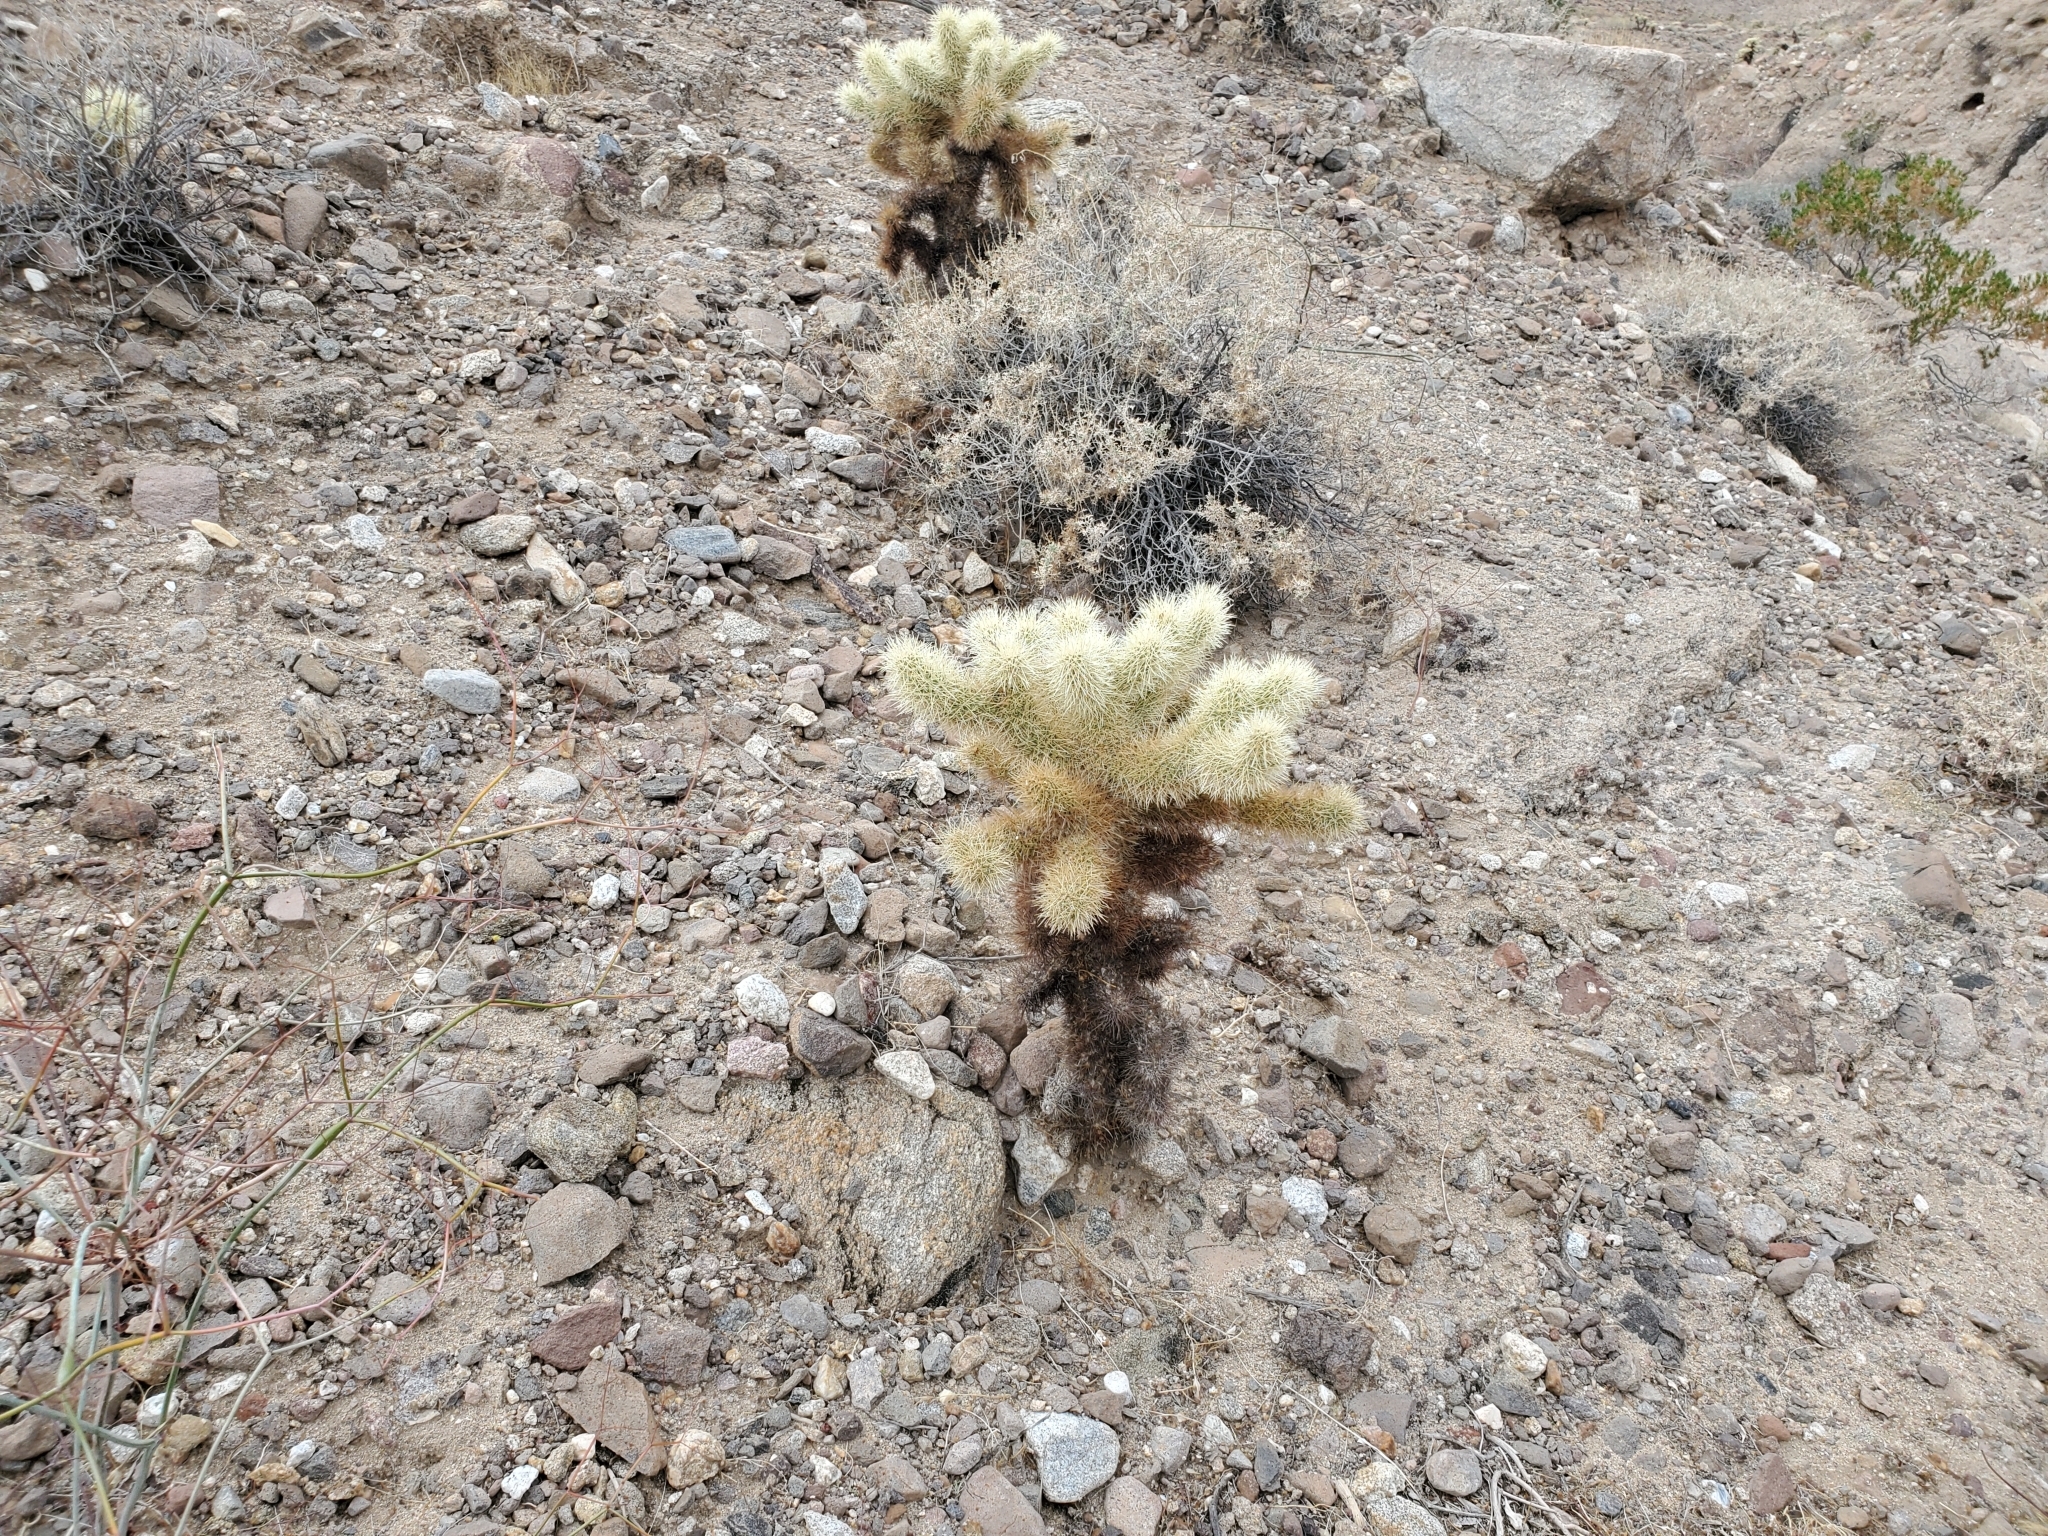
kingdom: Plantae
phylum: Tracheophyta
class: Magnoliopsida
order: Caryophyllales
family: Cactaceae
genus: Cylindropuntia
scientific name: Cylindropuntia fosbergii
